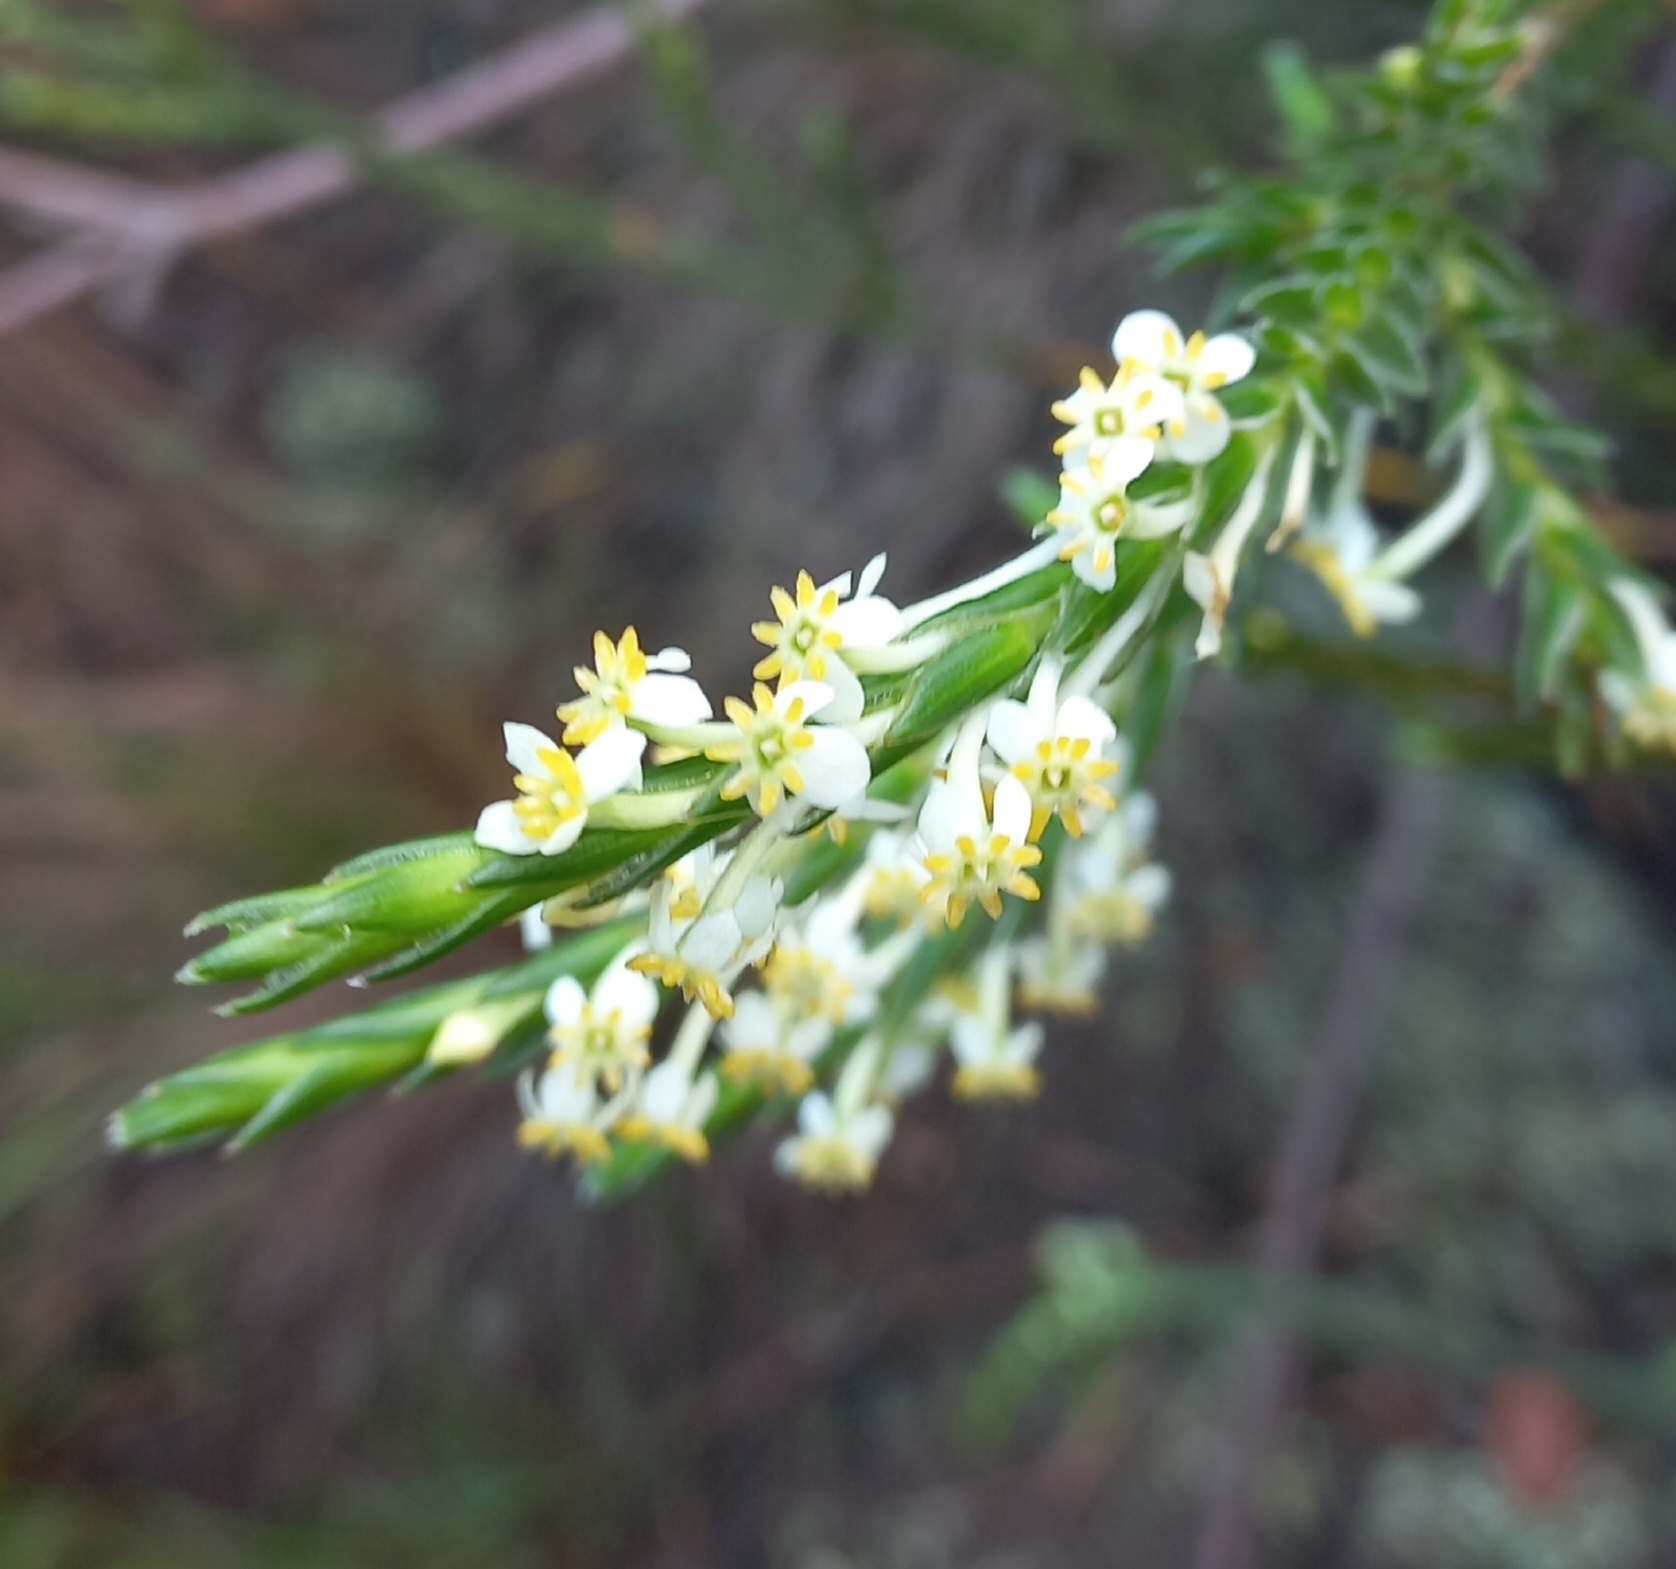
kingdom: Plantae
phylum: Tracheophyta
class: Magnoliopsida
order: Malvales
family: Thymelaeaceae
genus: Struthiola
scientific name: Struthiola ciliata
